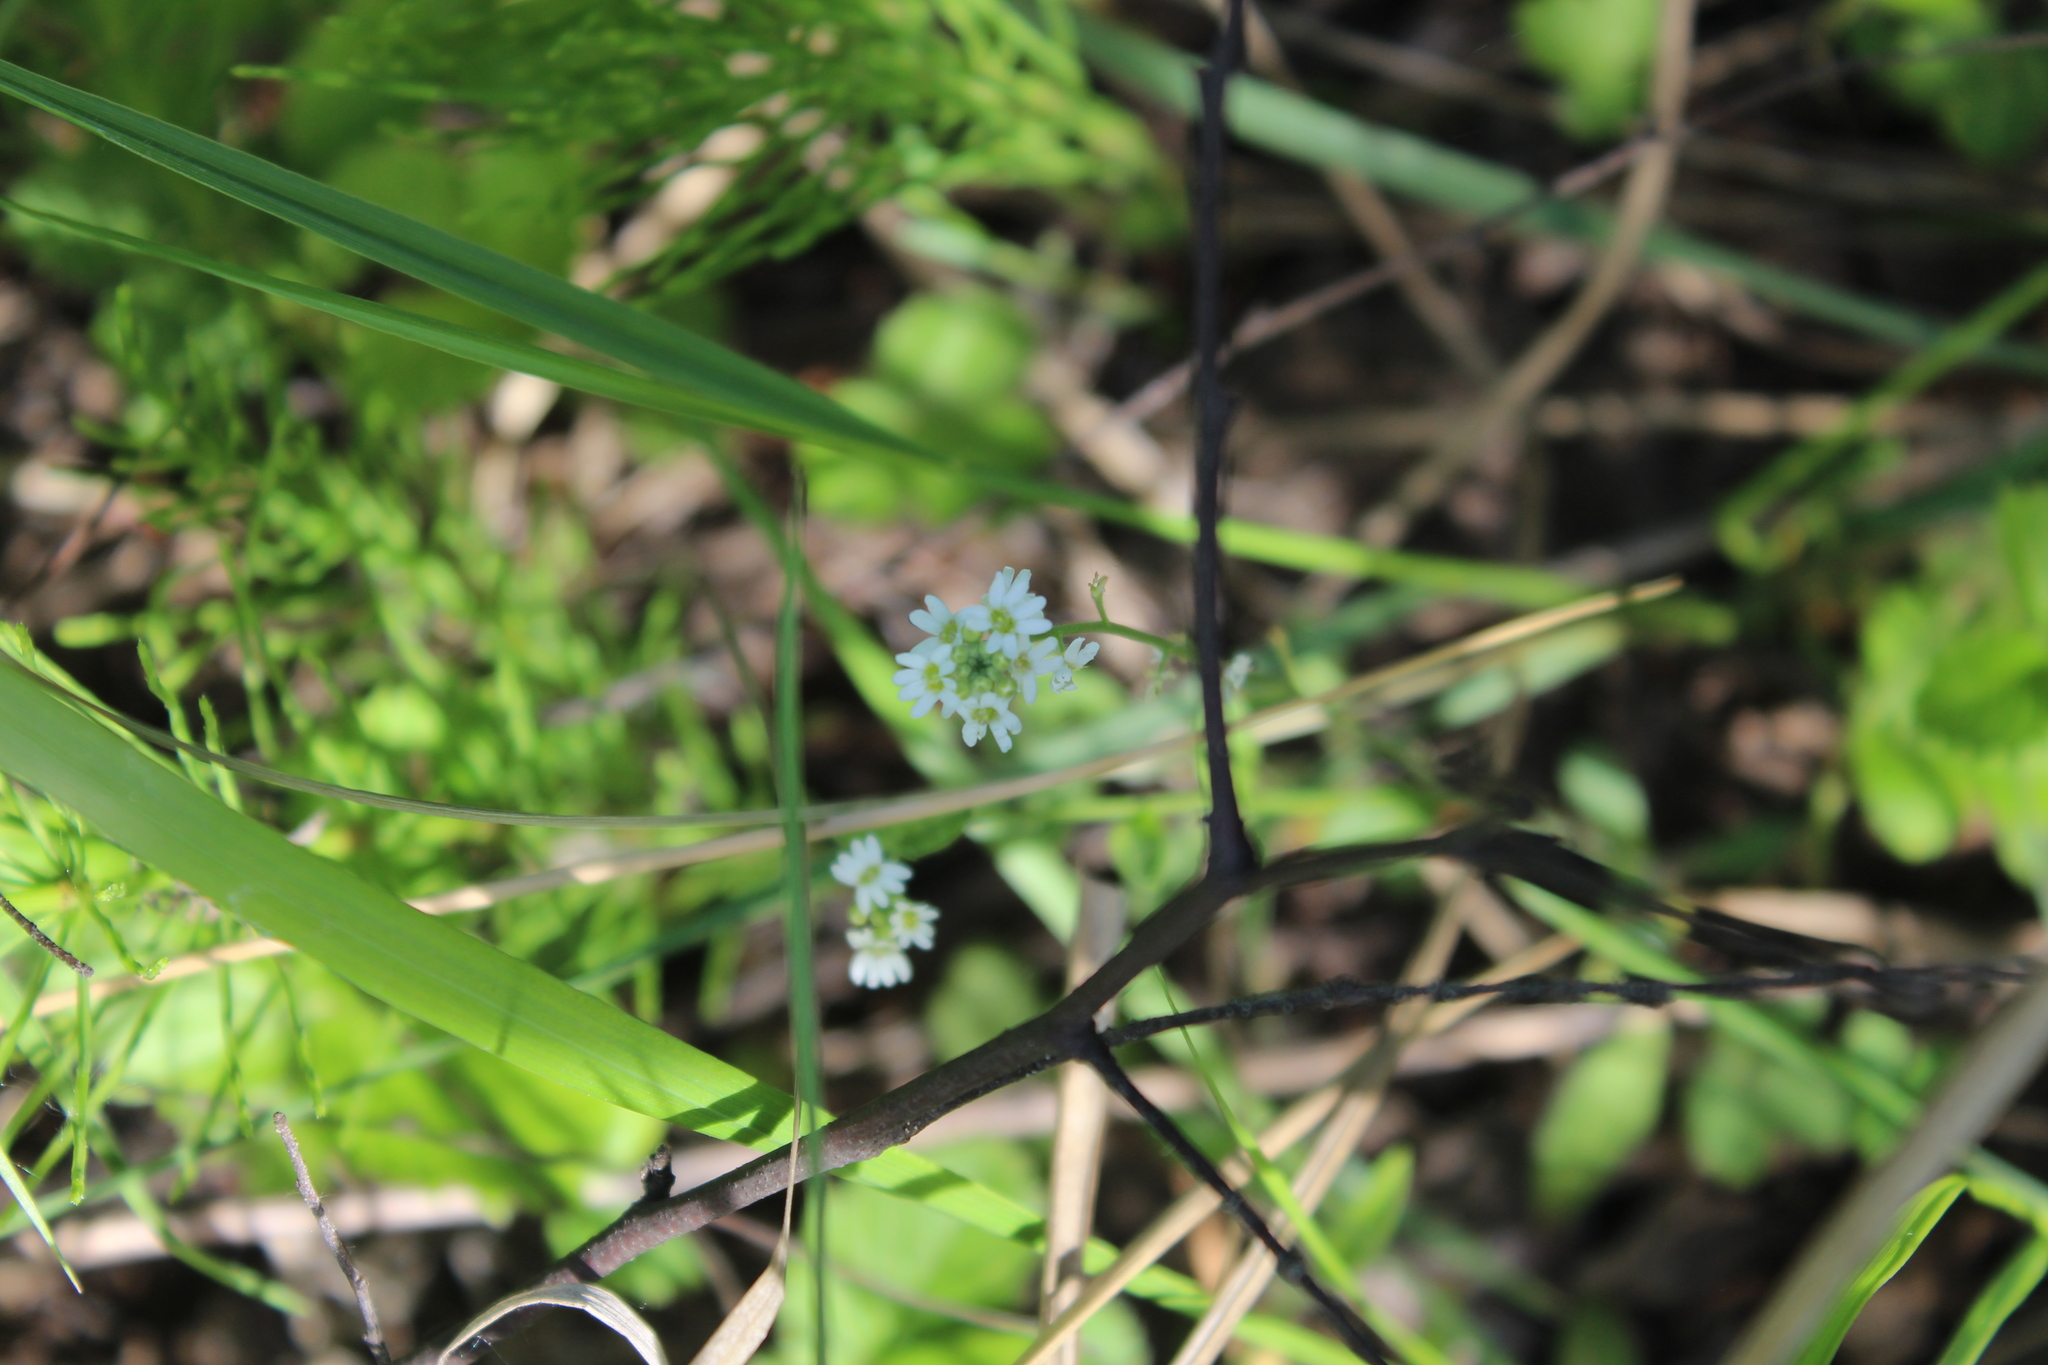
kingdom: Plantae
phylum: Tracheophyta
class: Magnoliopsida
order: Brassicales
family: Brassicaceae
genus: Berteroa
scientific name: Berteroa incana
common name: Hoary alison
